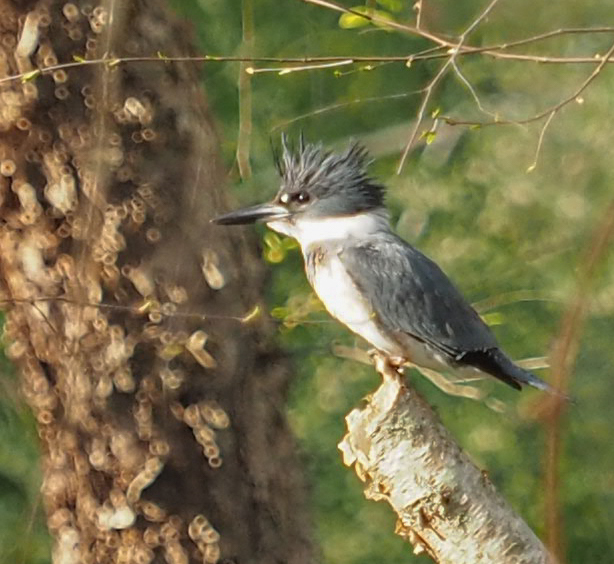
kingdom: Animalia
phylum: Chordata
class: Aves
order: Coraciiformes
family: Alcedinidae
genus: Megaceryle
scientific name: Megaceryle alcyon
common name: Belted kingfisher
